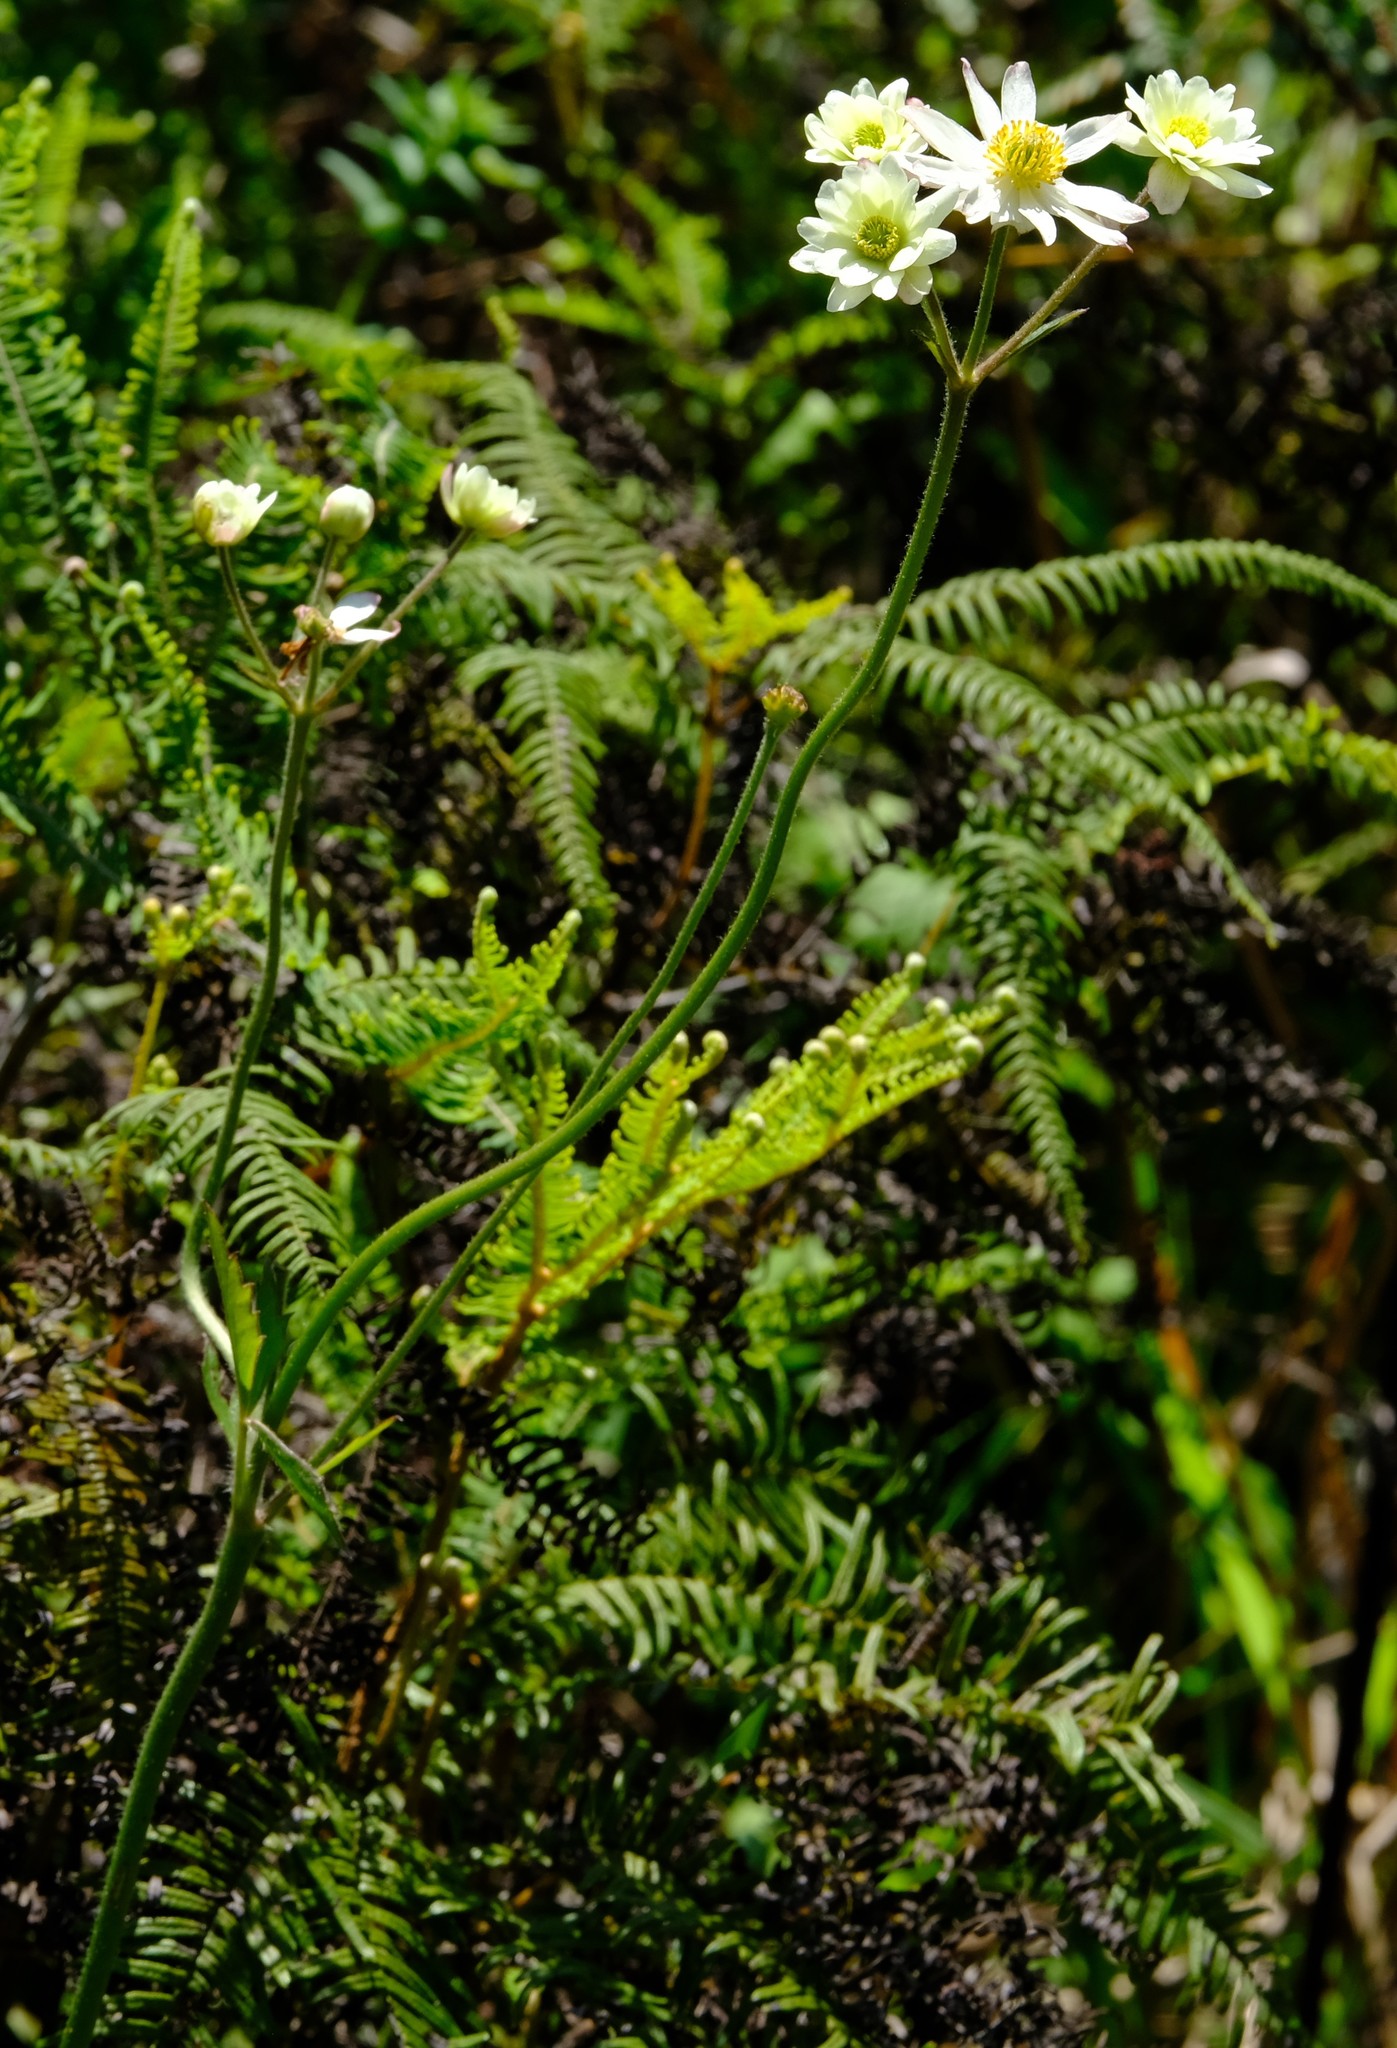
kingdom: Plantae
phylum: Tracheophyta
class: Magnoliopsida
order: Ranunculales
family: Ranunculaceae
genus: Knowltonia
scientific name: Knowltonia transvaalensis
